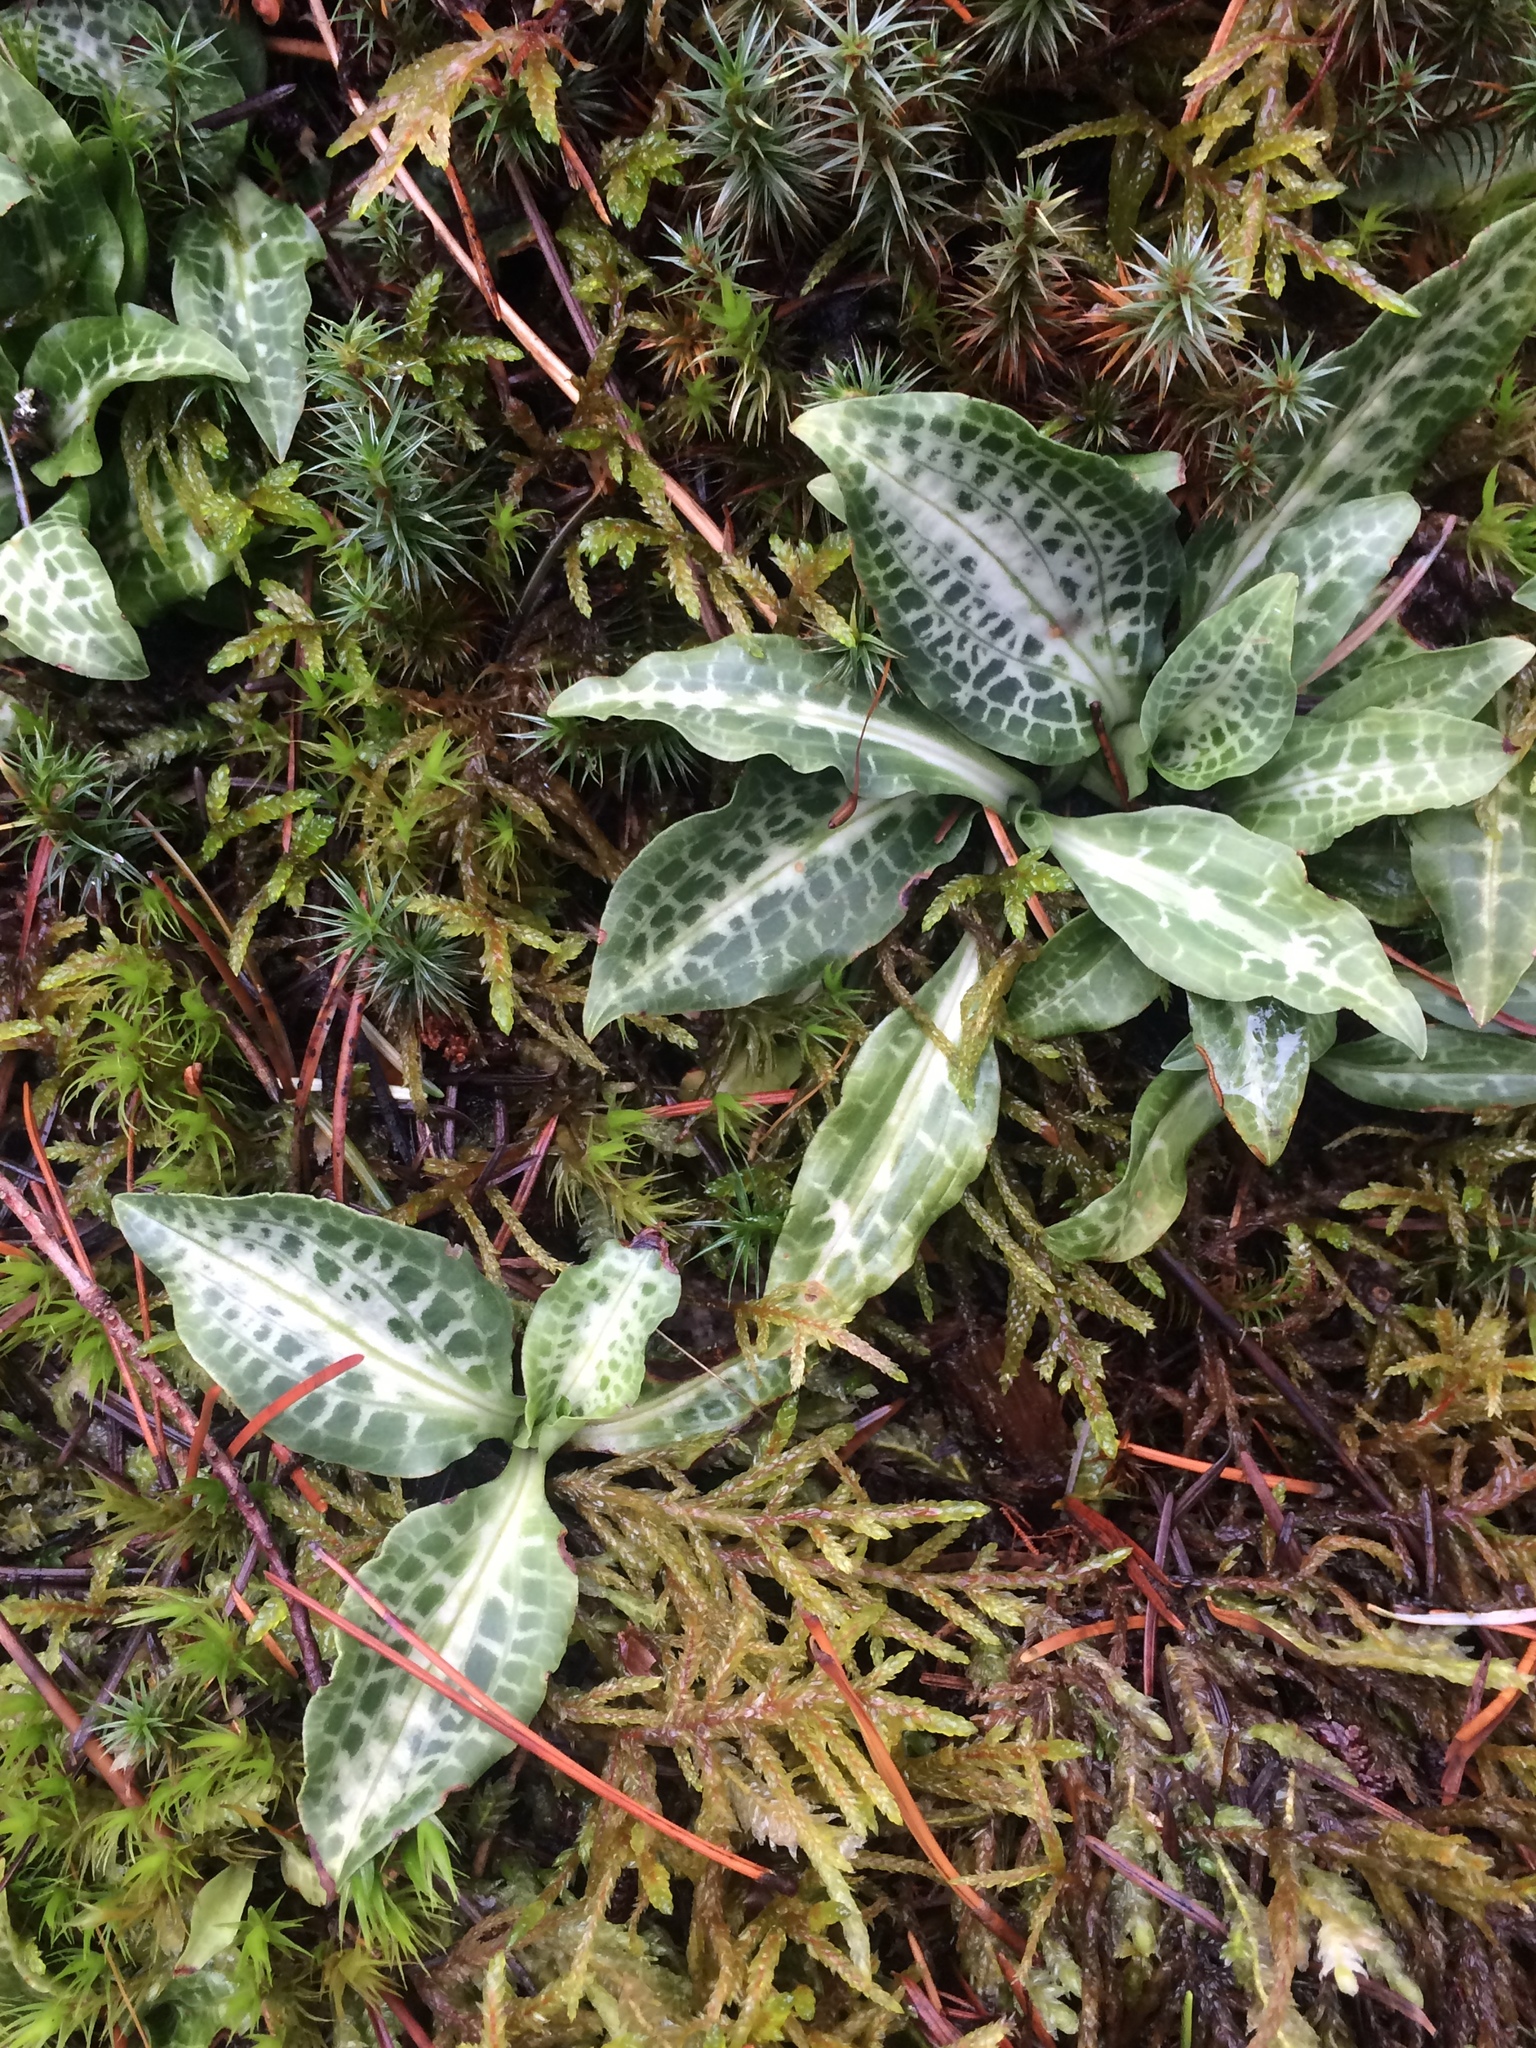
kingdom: Plantae
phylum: Tracheophyta
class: Liliopsida
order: Asparagales
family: Orchidaceae
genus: Goodyera
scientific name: Goodyera oblongifolia
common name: Giant rattlesnake-plantain
